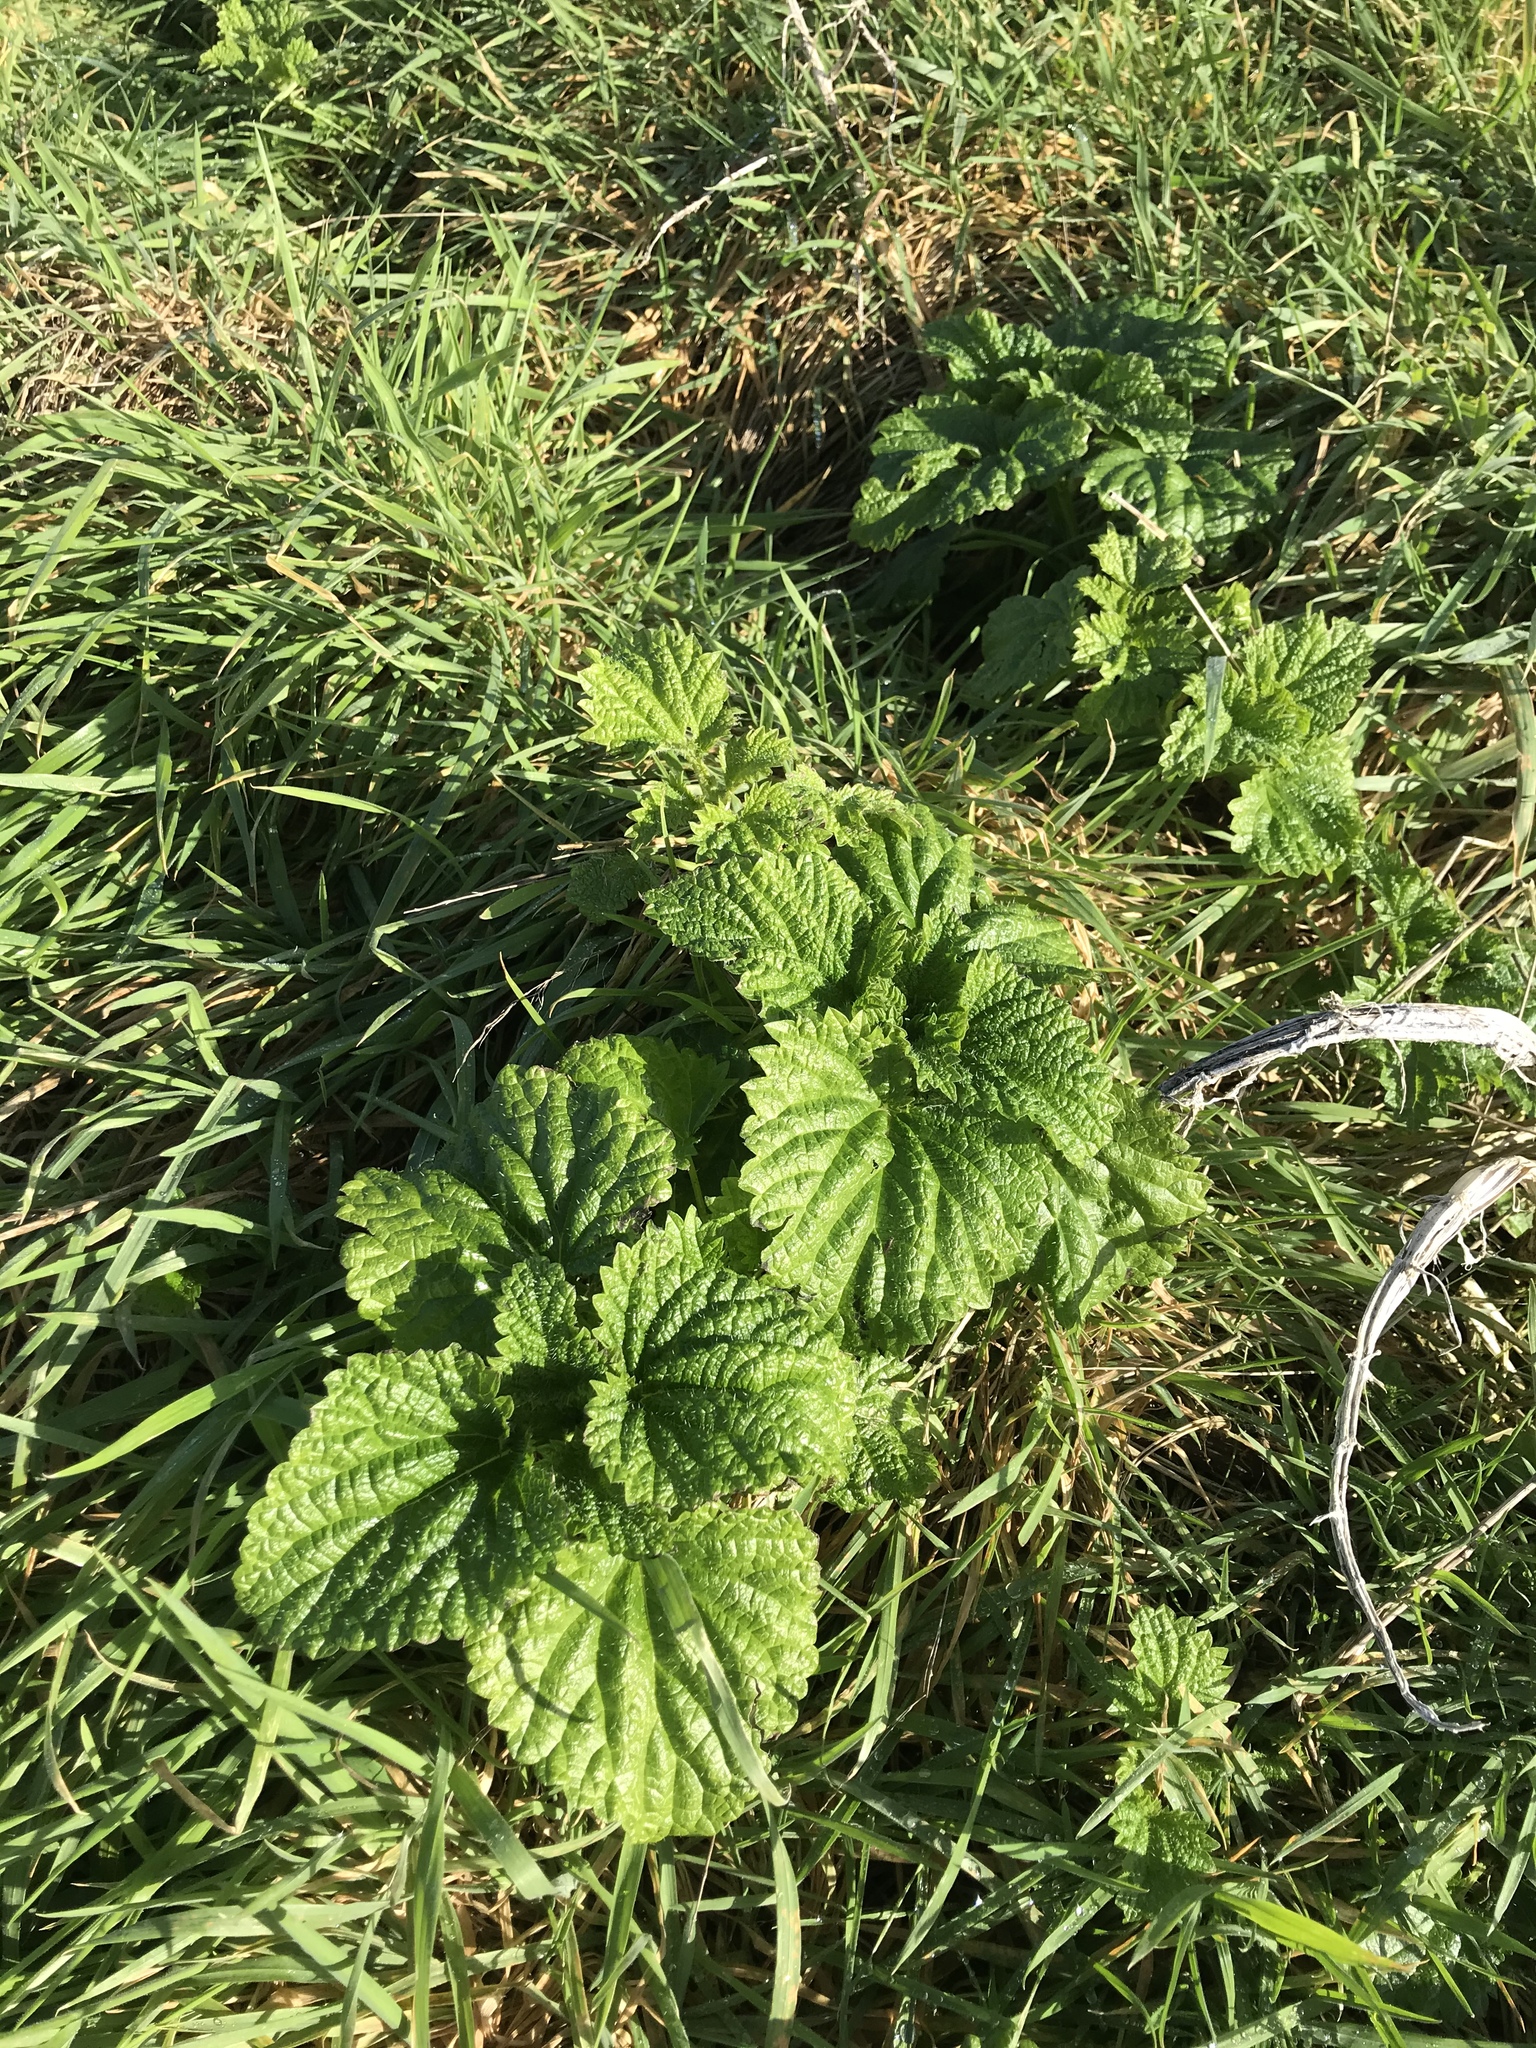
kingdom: Plantae
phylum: Tracheophyta
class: Magnoliopsida
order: Rosales
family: Urticaceae
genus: Urtica
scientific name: Urtica australis
